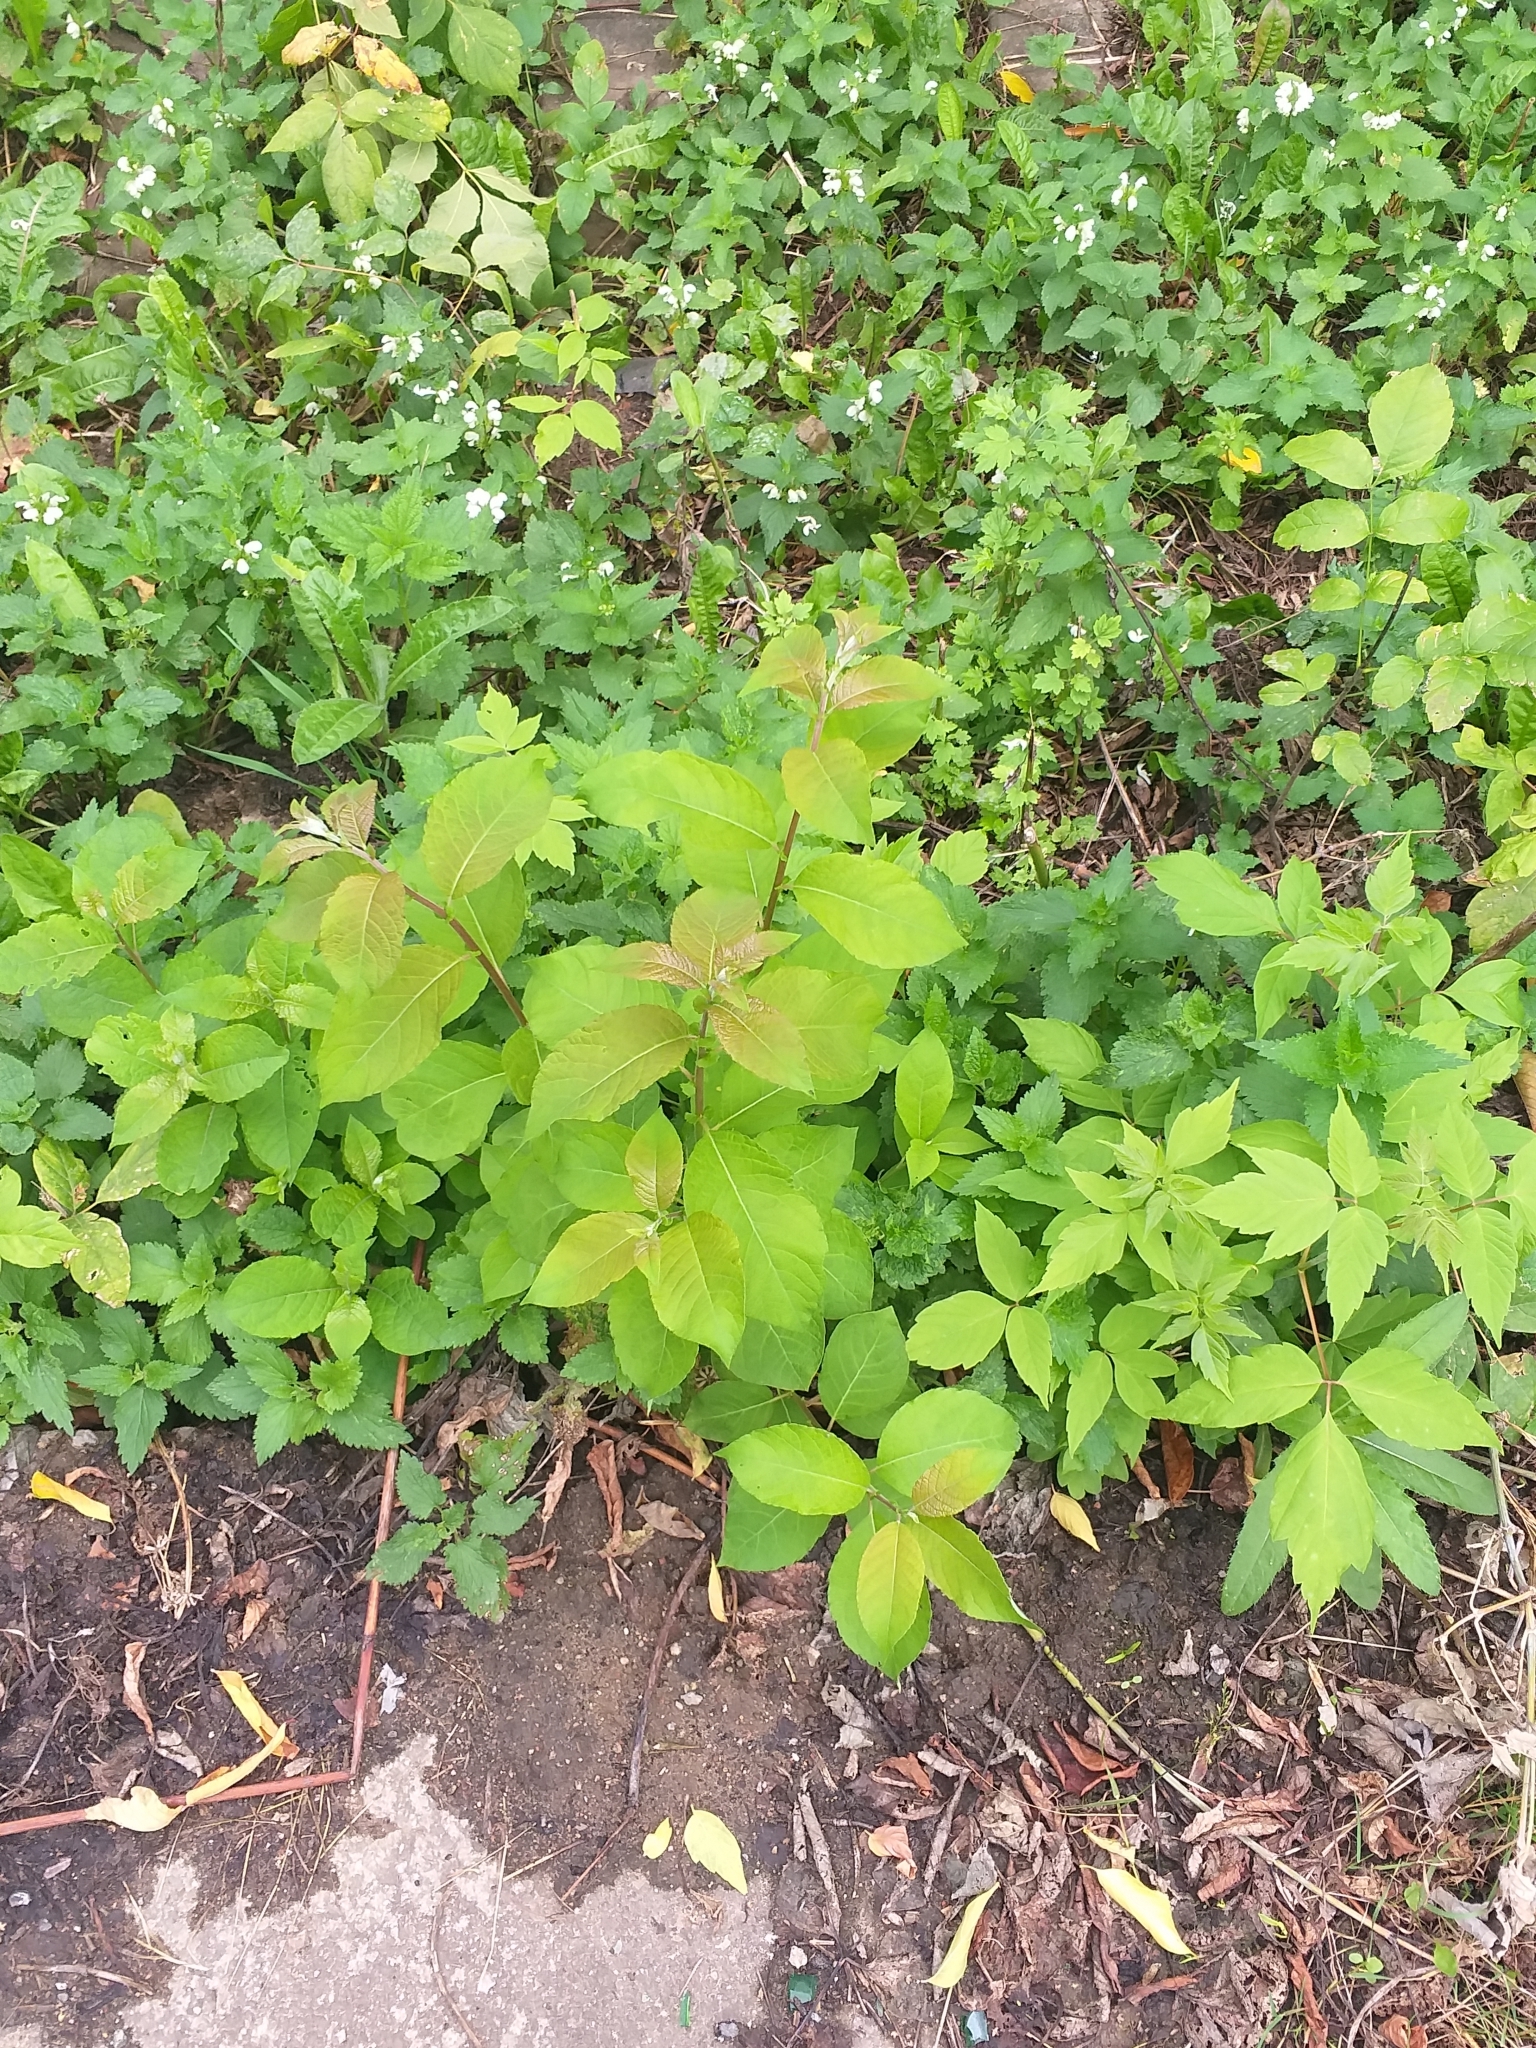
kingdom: Plantae
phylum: Tracheophyta
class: Magnoliopsida
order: Malpighiales
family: Salicaceae
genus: Salix
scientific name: Salix caprea
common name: Goat willow
